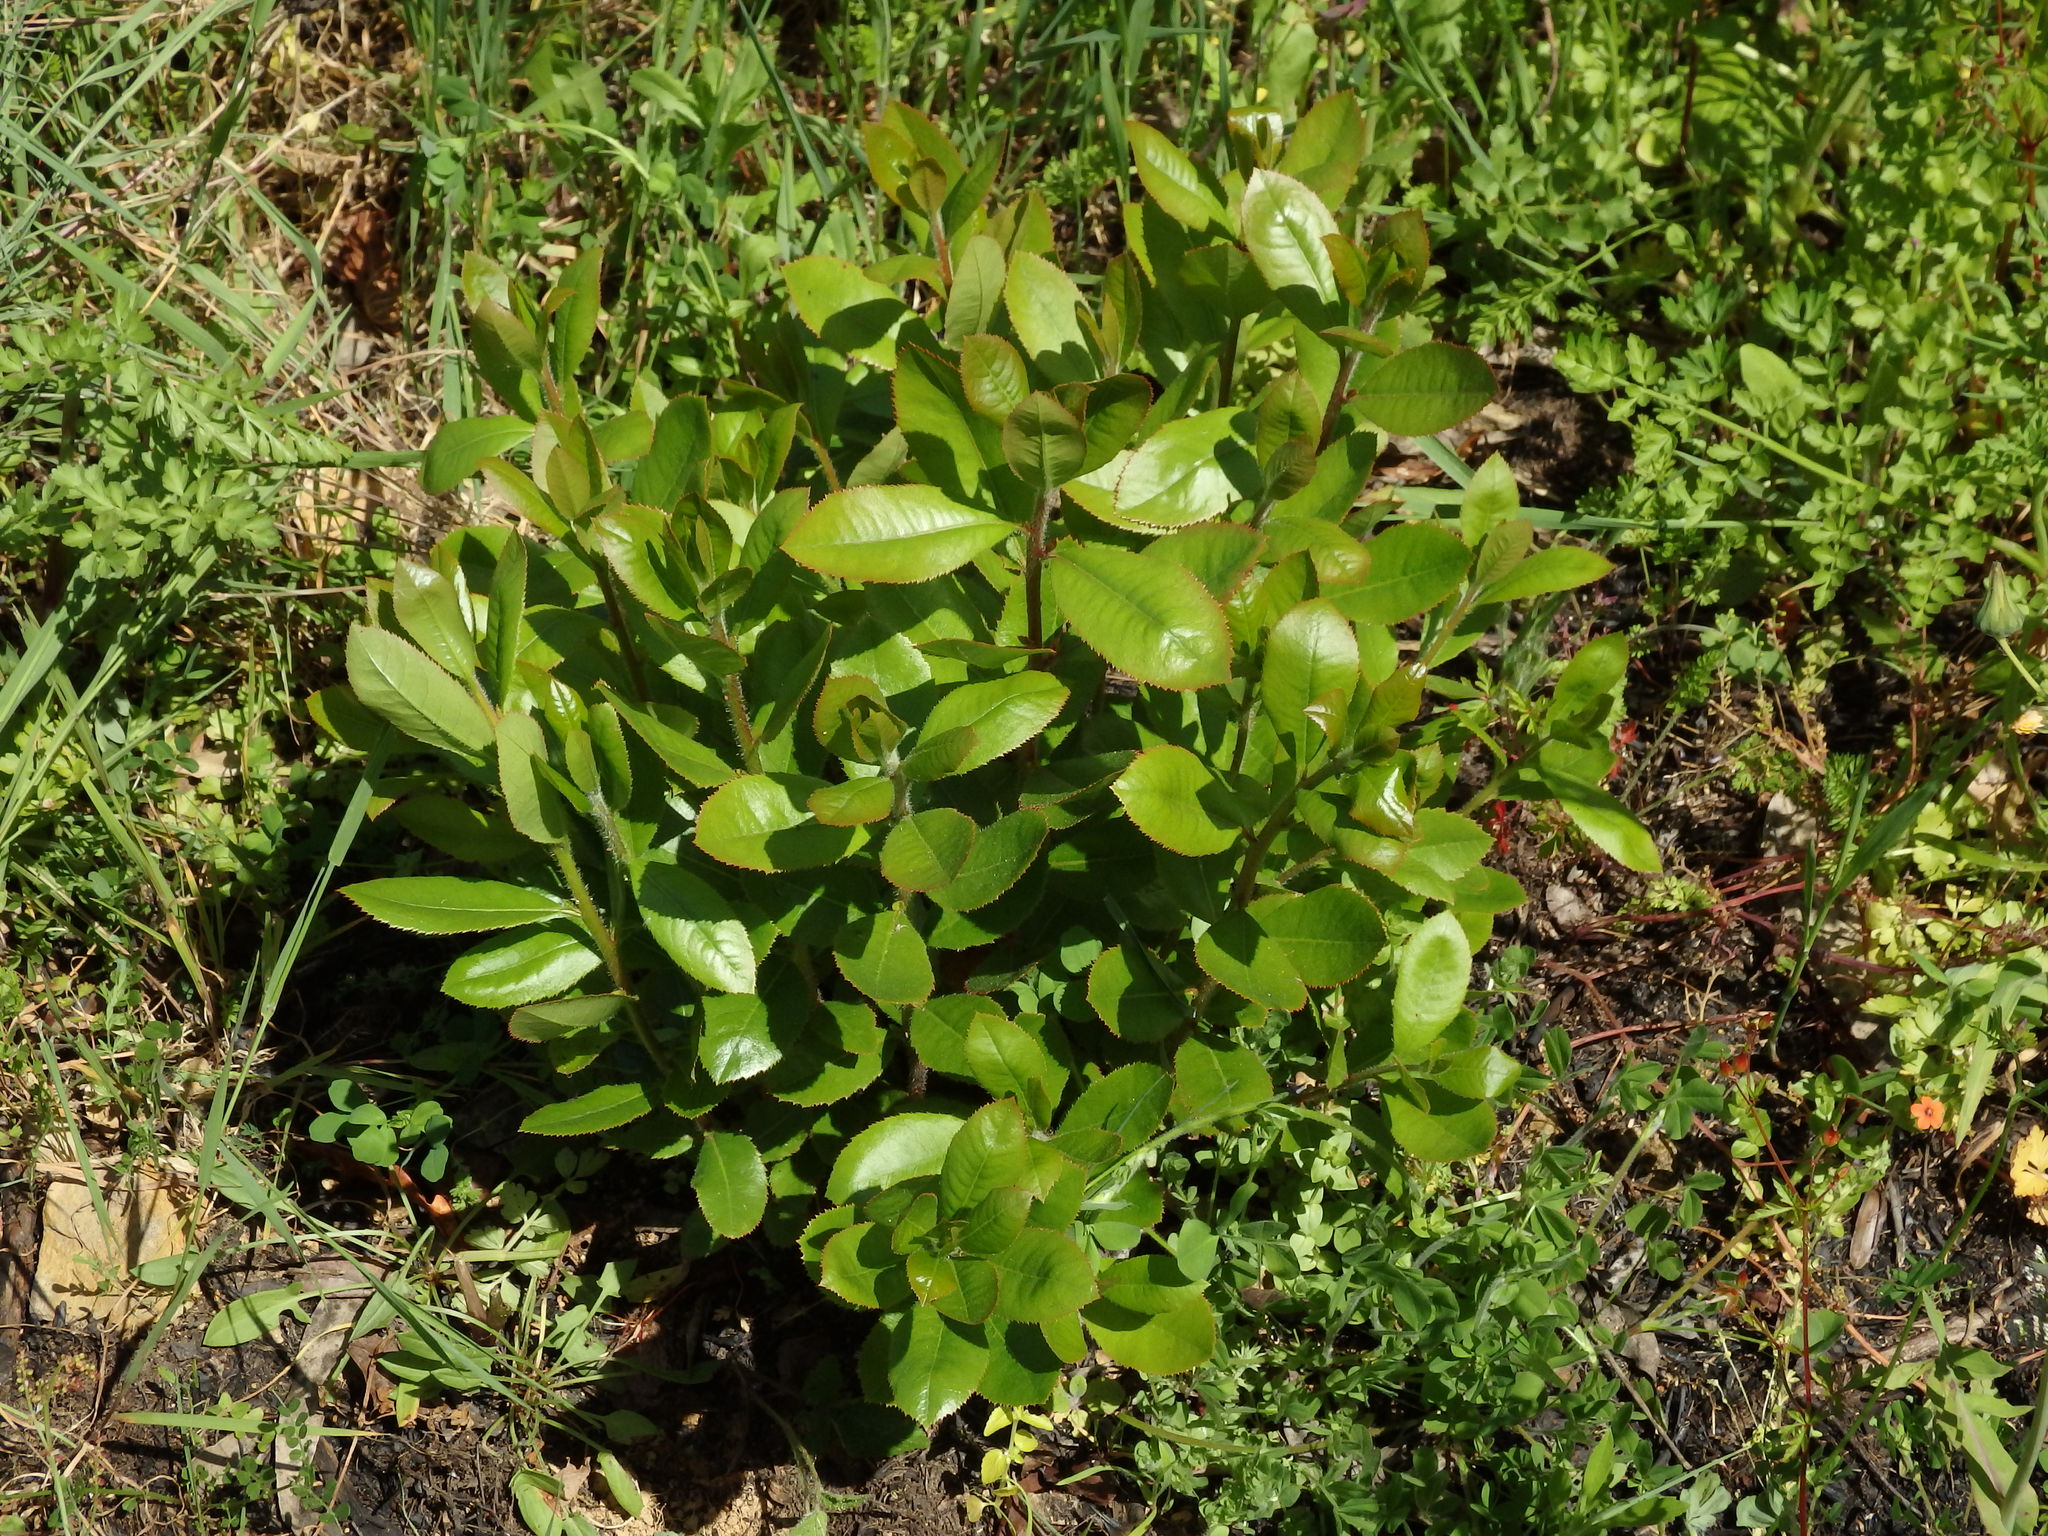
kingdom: Plantae
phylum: Tracheophyta
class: Magnoliopsida
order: Ericales
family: Ericaceae
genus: Arbutus
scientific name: Arbutus unedo
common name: Strawberry-tree
